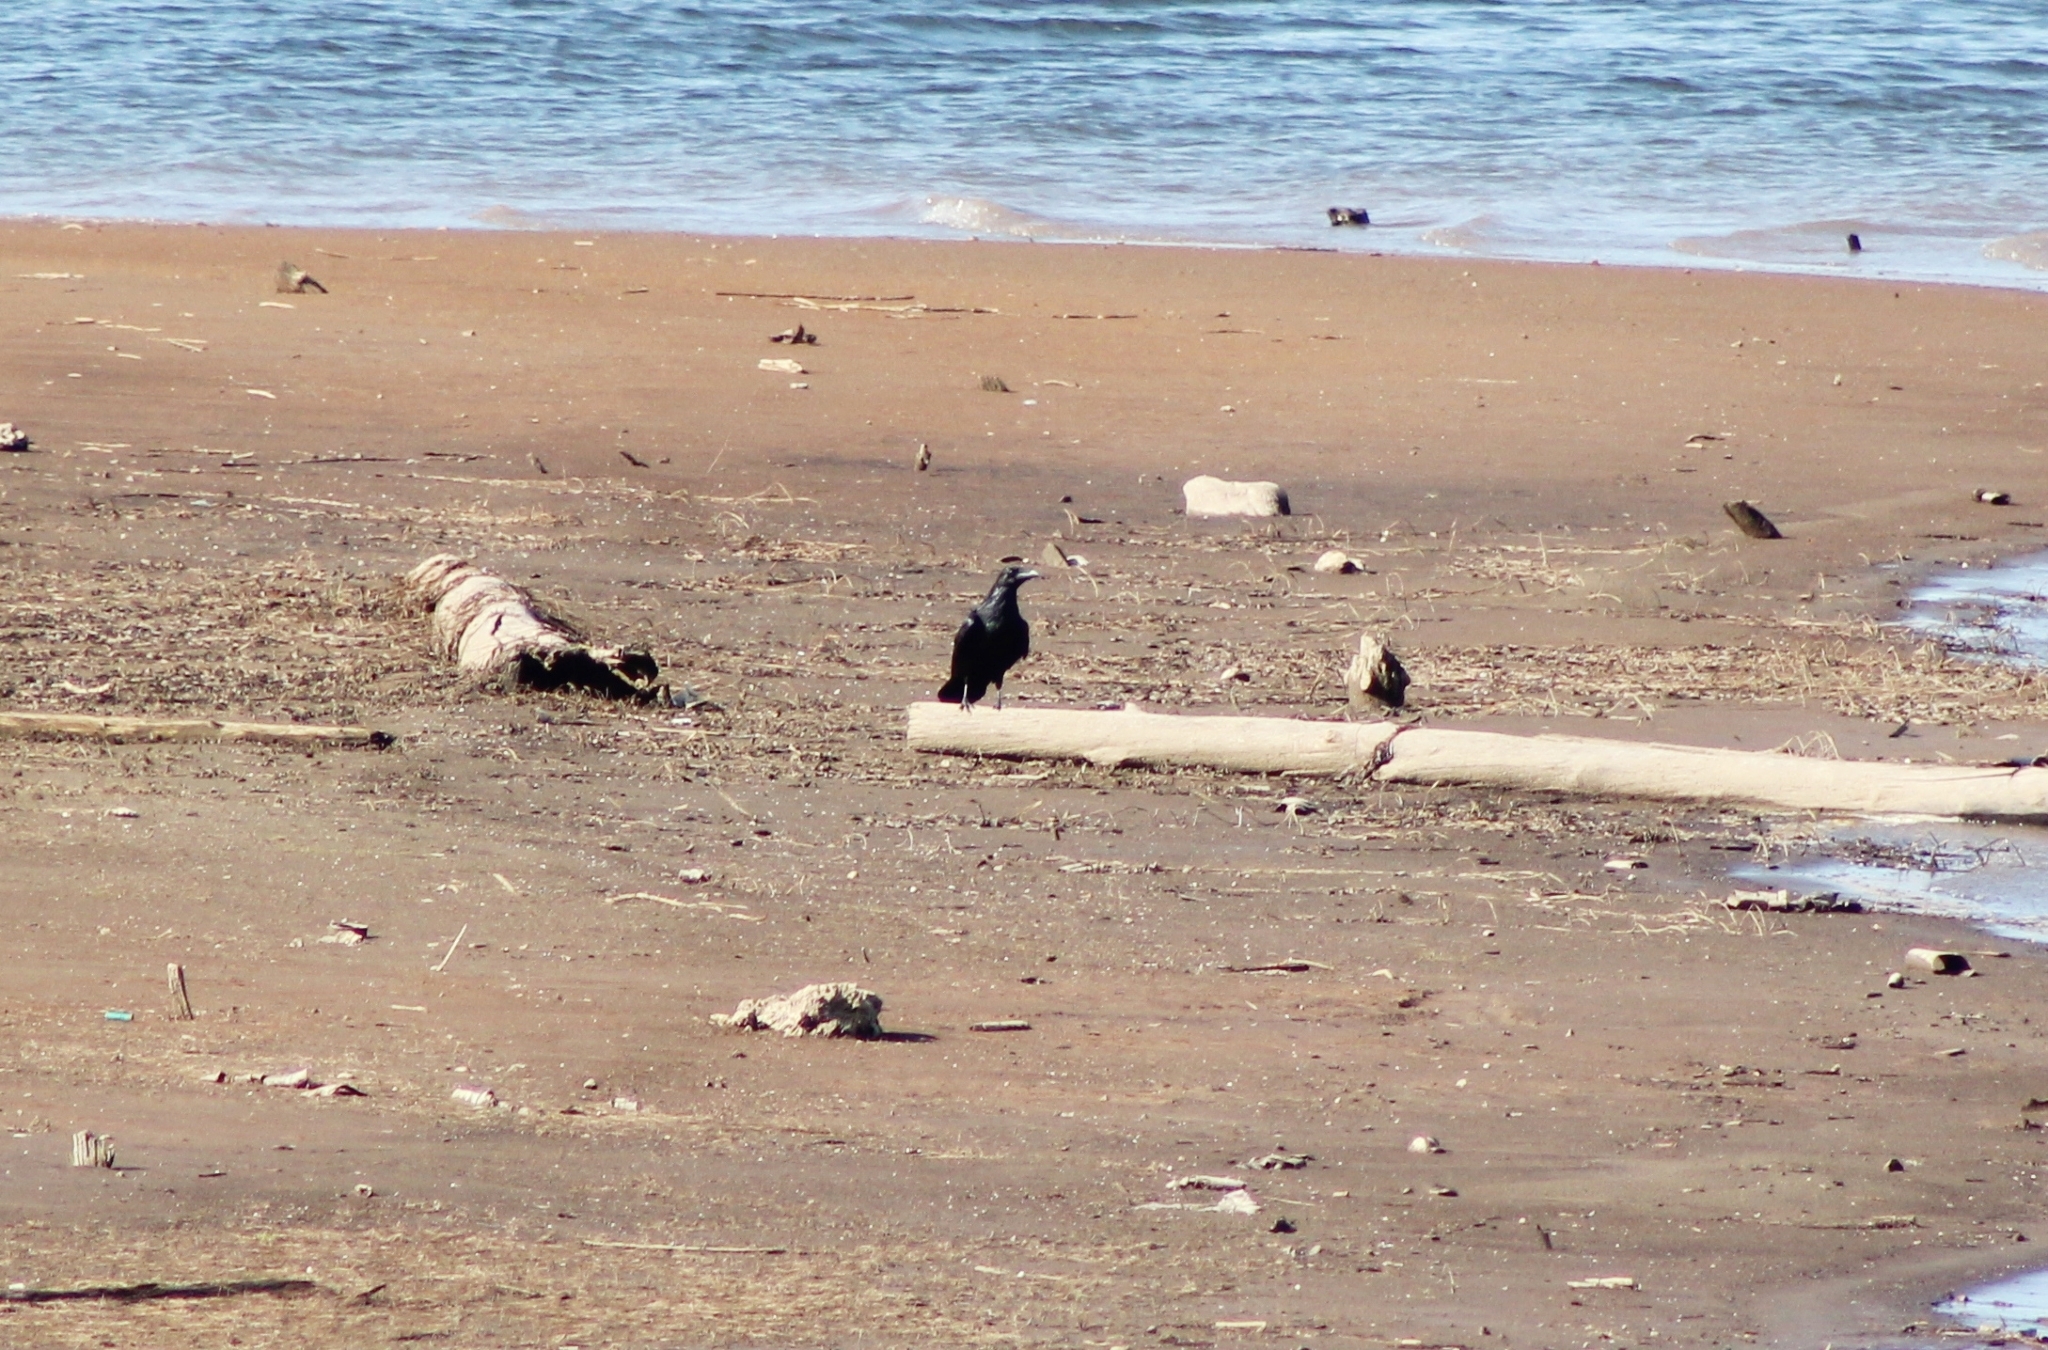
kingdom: Animalia
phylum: Chordata
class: Aves
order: Passeriformes
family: Corvidae
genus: Corvus
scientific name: Corvus corax
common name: Common raven
